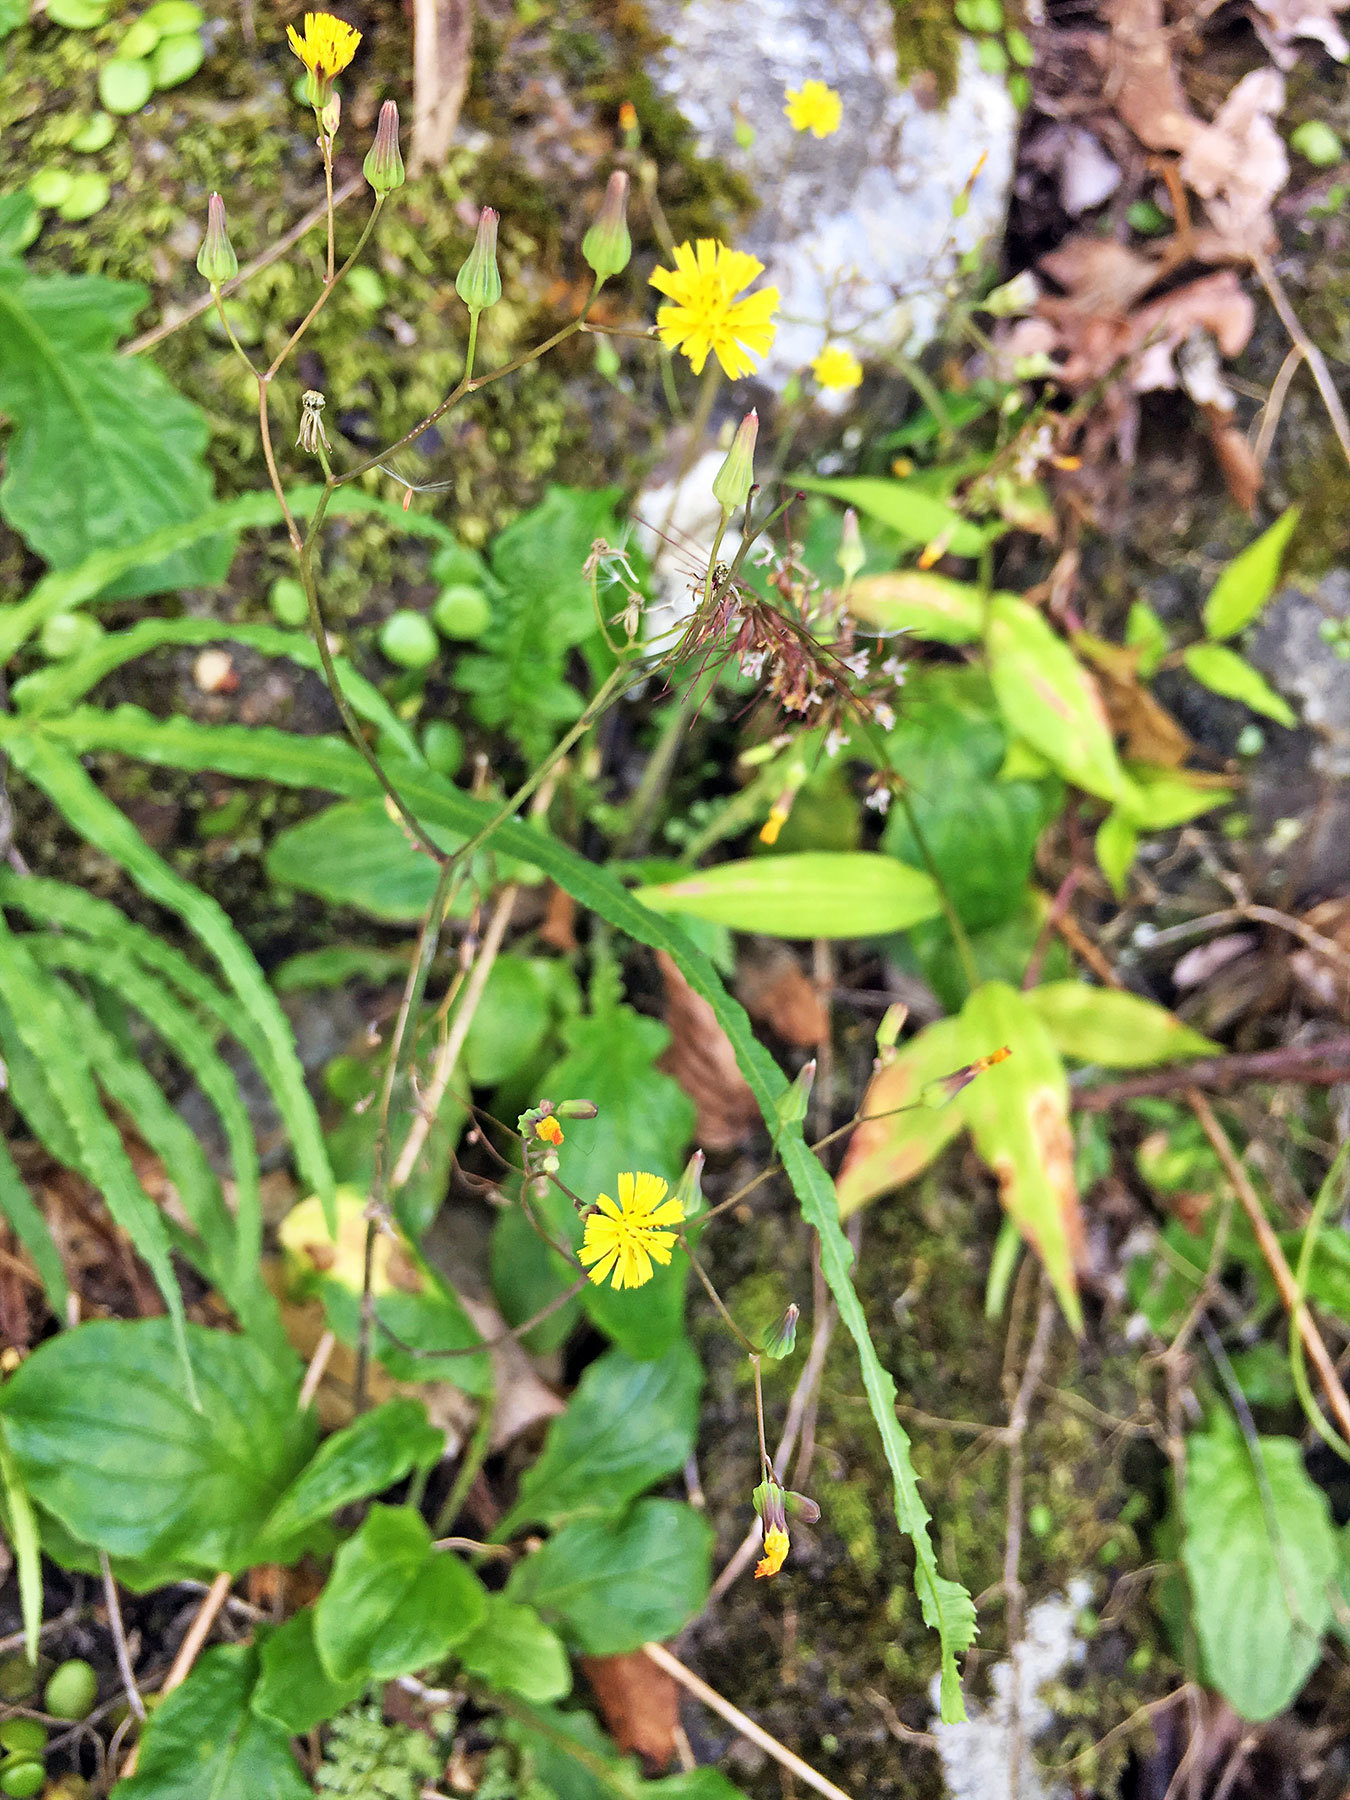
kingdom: Plantae
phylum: Tracheophyta
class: Magnoliopsida
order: Asterales
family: Asteraceae
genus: Youngia
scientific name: Youngia japonica
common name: Oriental false hawksbeard
